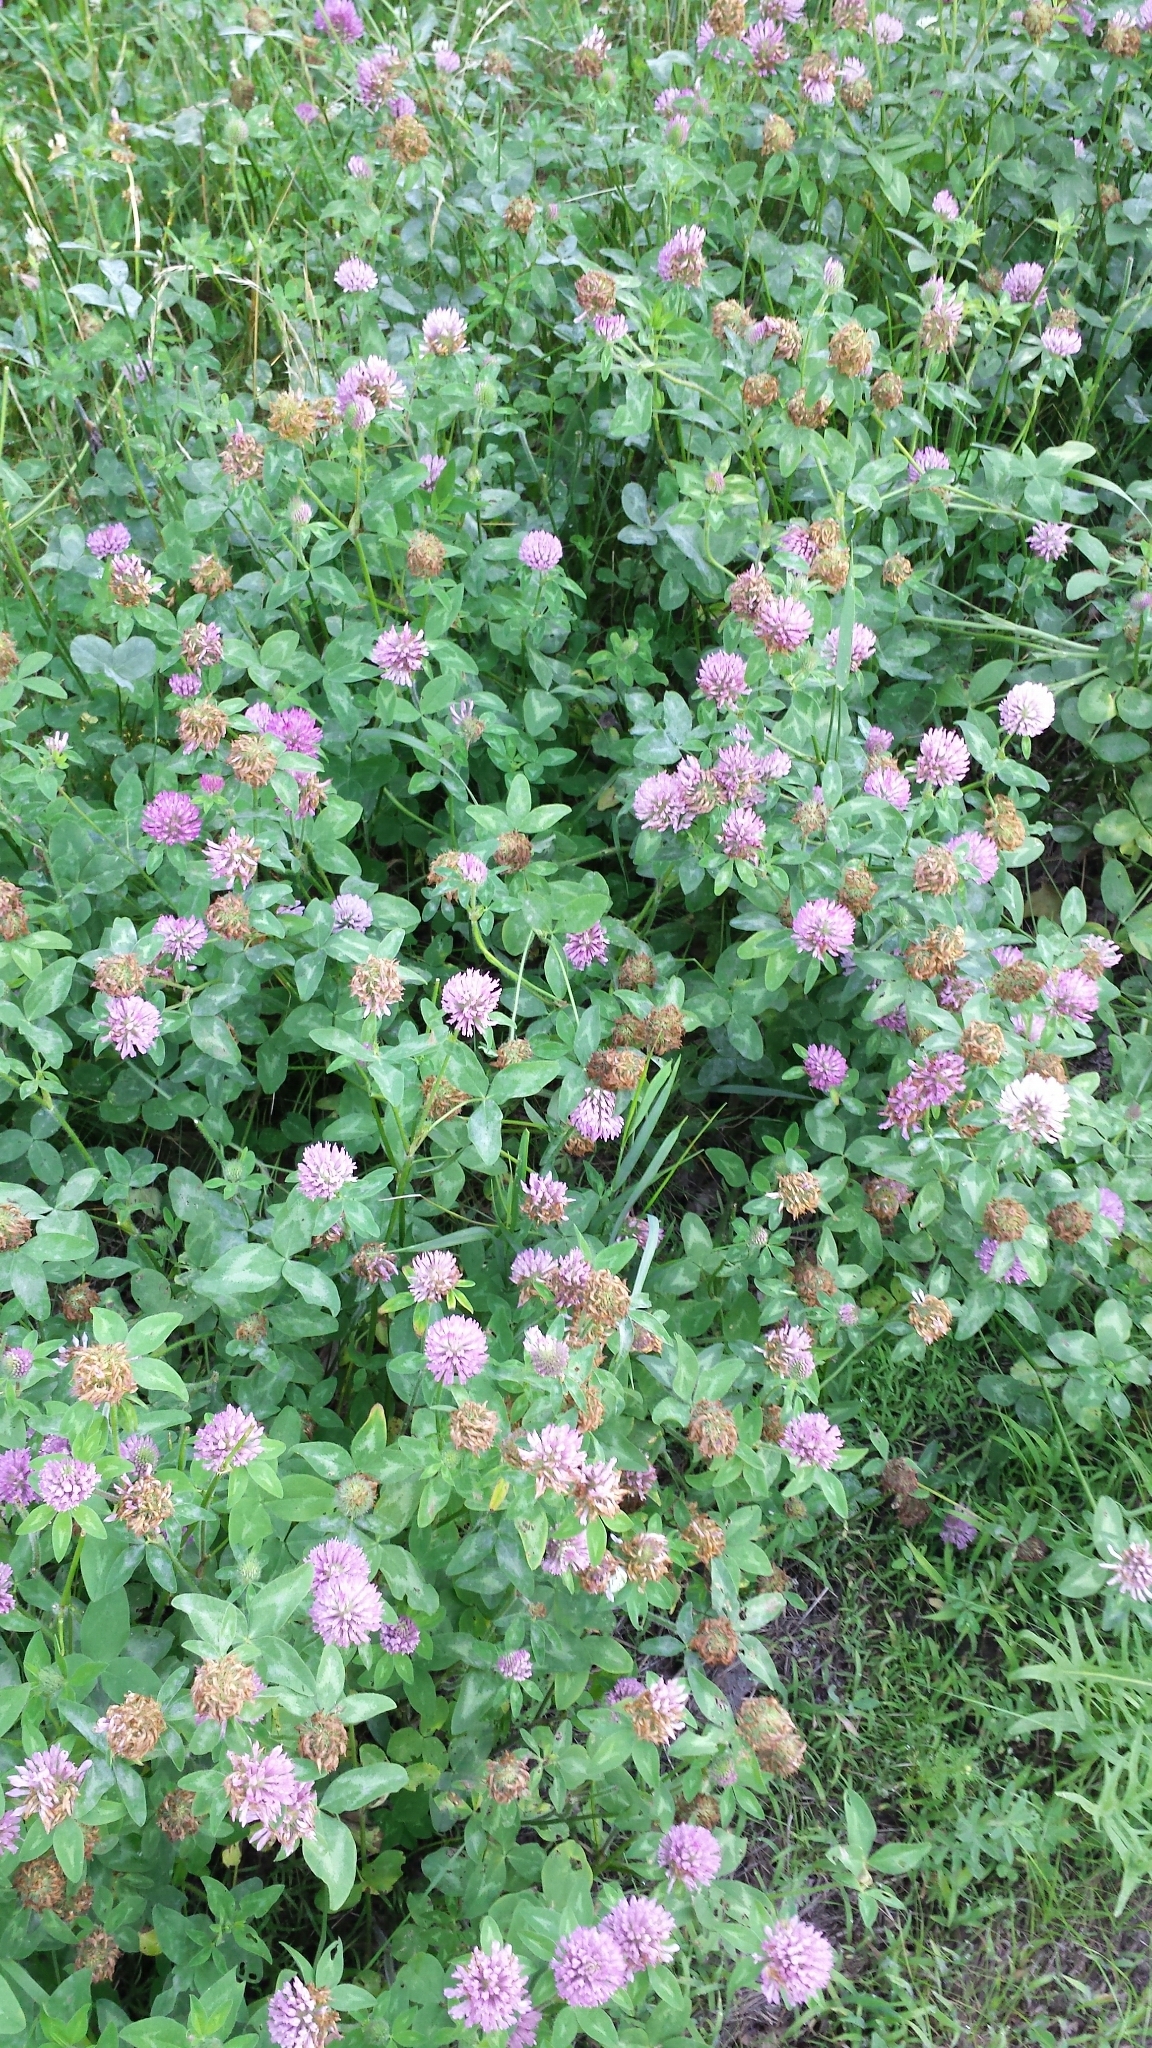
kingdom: Plantae
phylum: Tracheophyta
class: Magnoliopsida
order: Fabales
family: Fabaceae
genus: Trifolium
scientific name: Trifolium pratense
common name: Red clover
